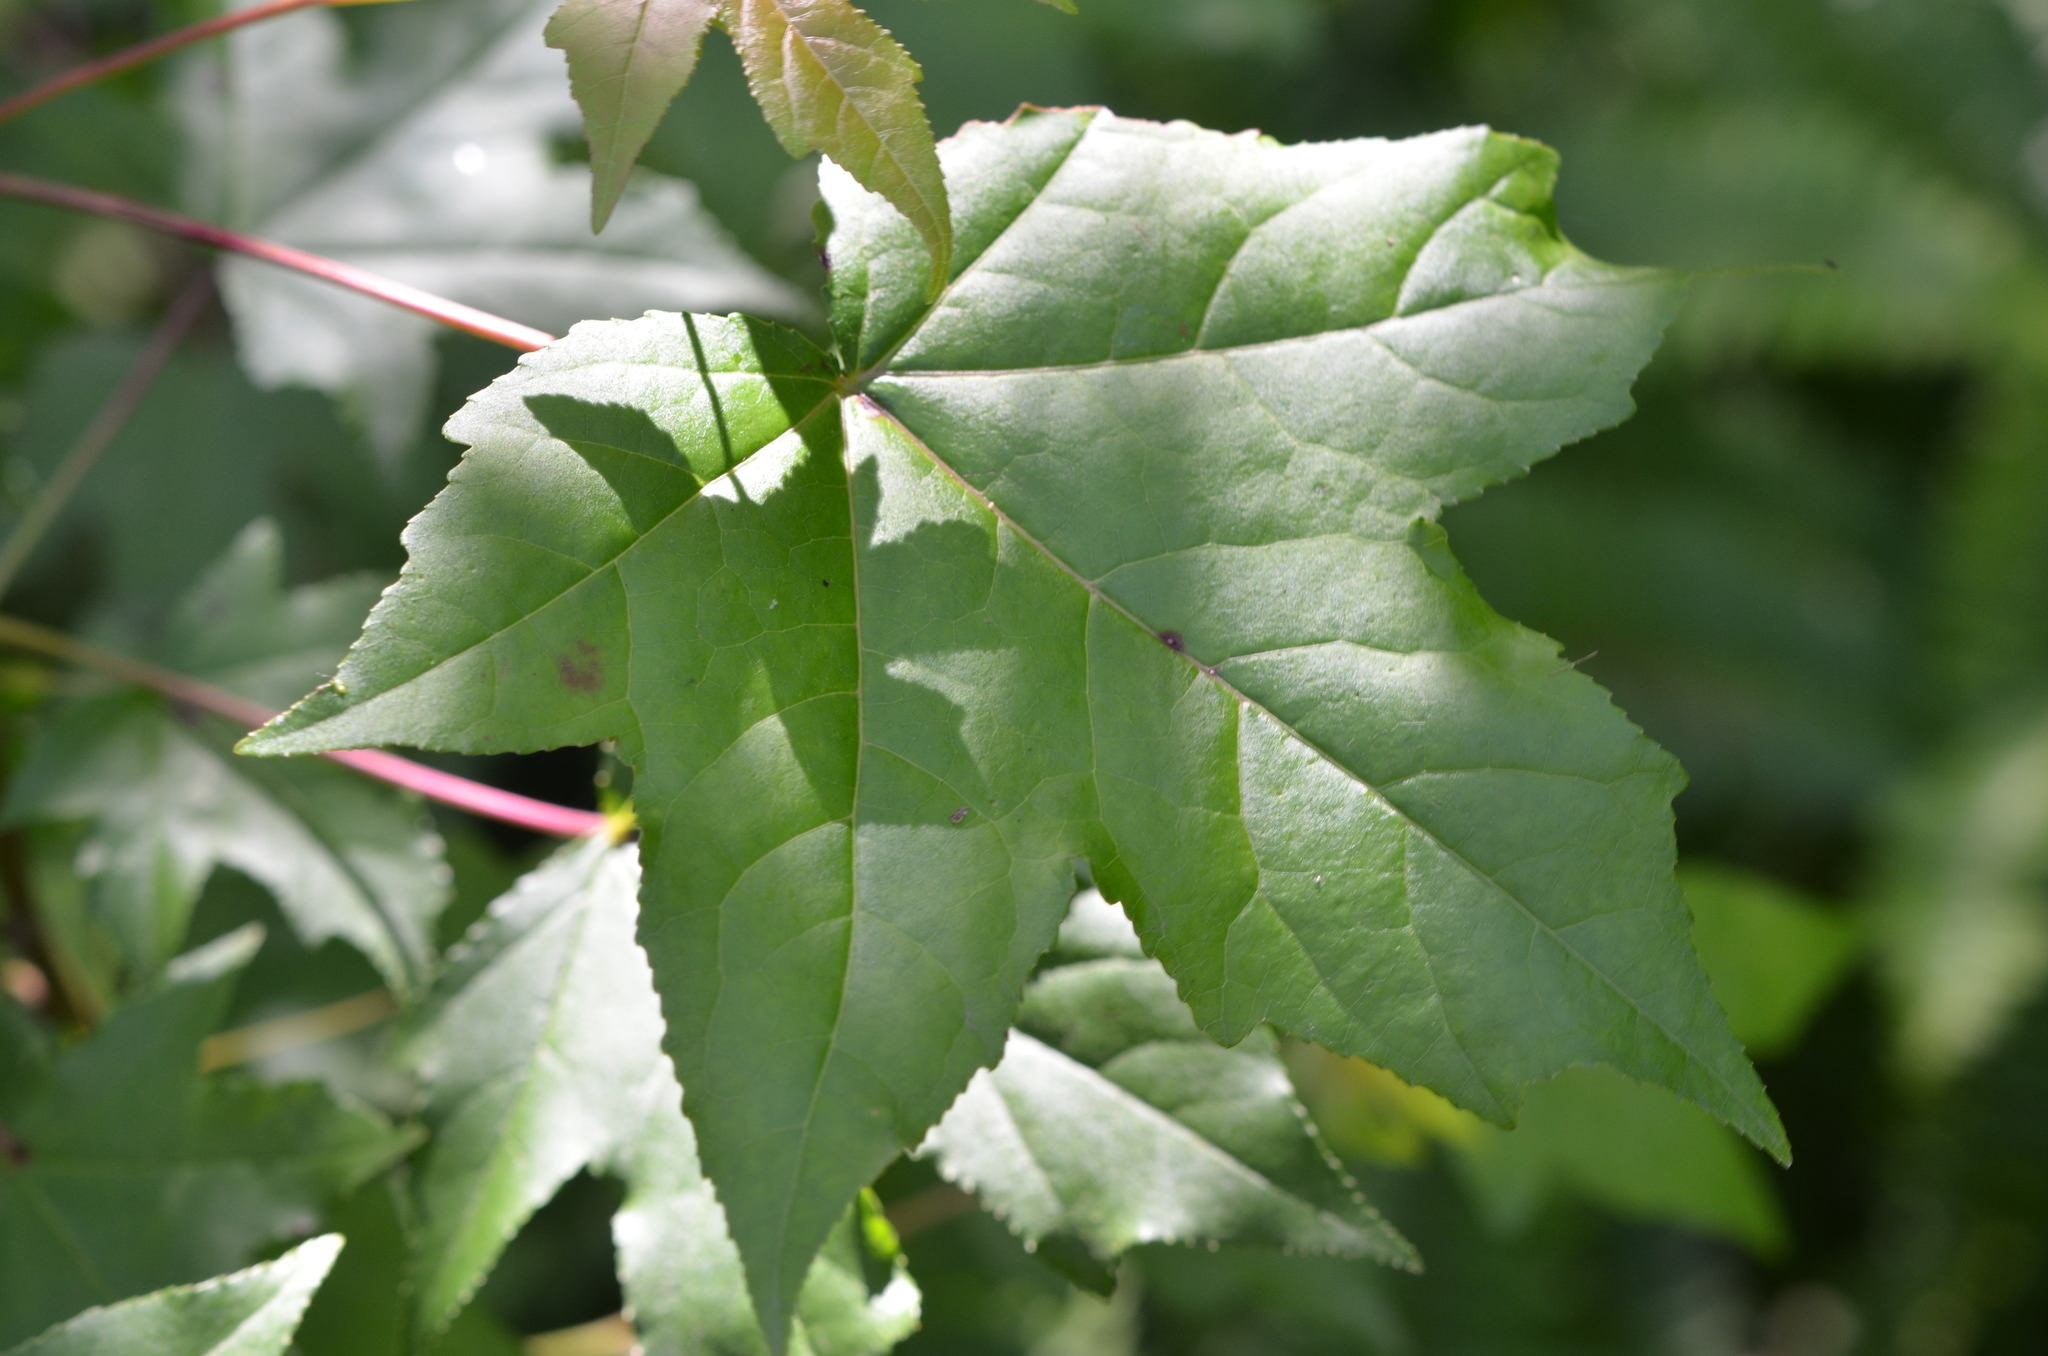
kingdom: Plantae
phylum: Tracheophyta
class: Magnoliopsida
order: Saxifragales
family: Altingiaceae
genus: Liquidambar
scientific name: Liquidambar styraciflua
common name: Sweet gum
